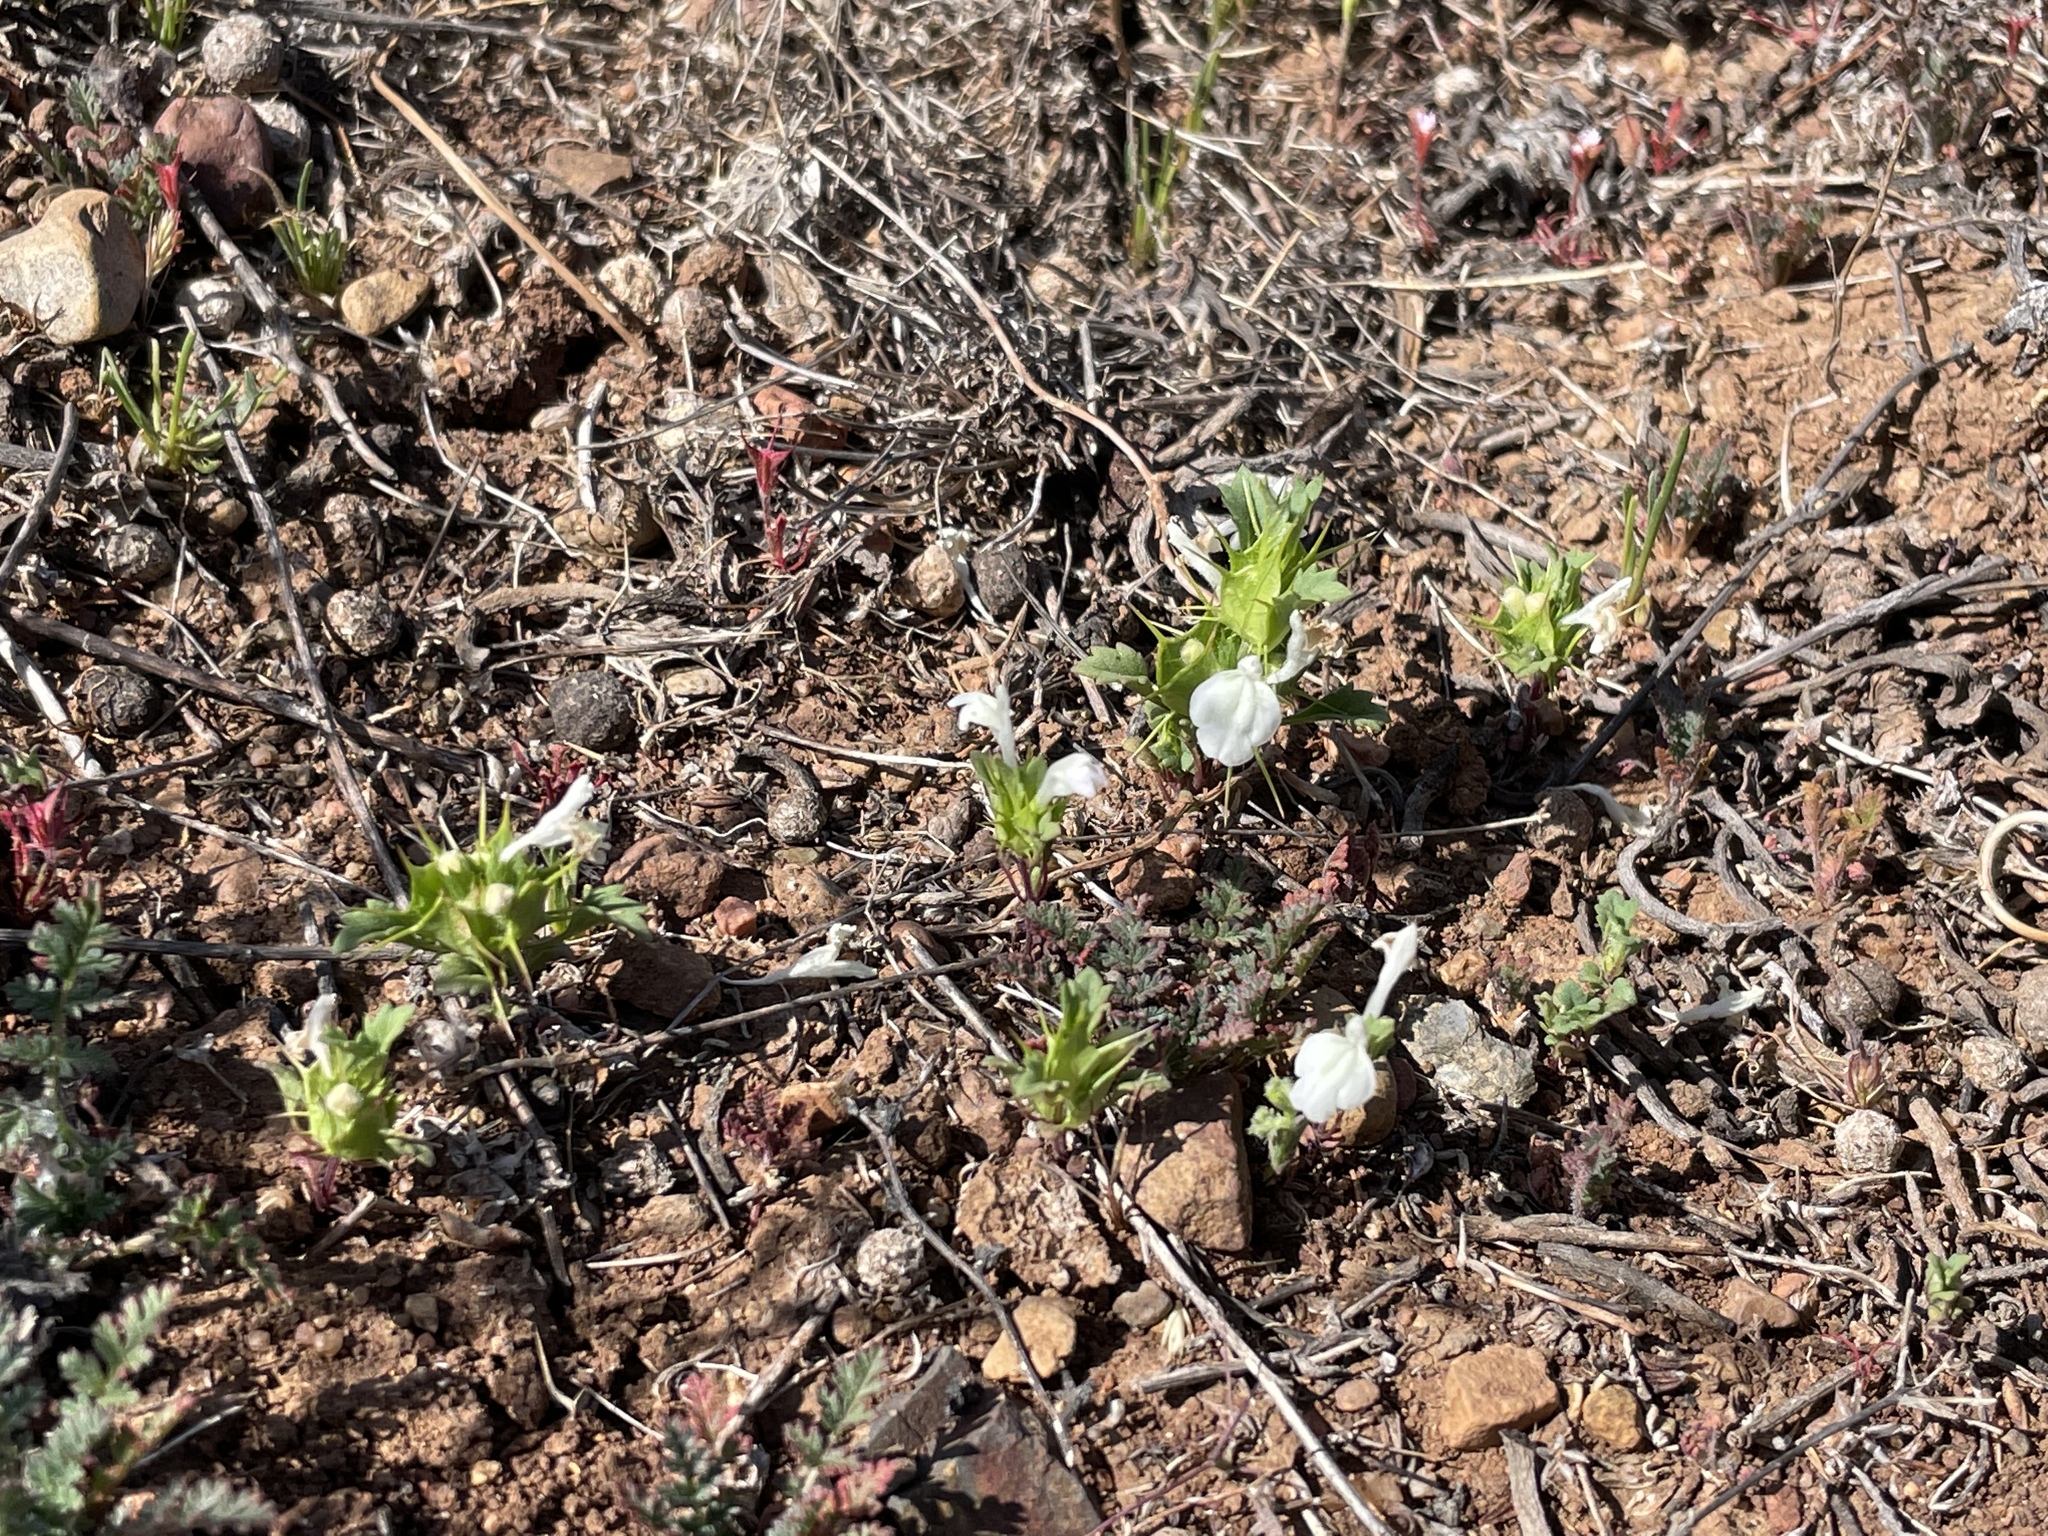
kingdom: Plantae
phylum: Tracheophyta
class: Magnoliopsida
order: Lamiales
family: Lamiaceae
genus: Acanthomintha
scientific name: Acanthomintha ilicifolia
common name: San diego thorn-mint
